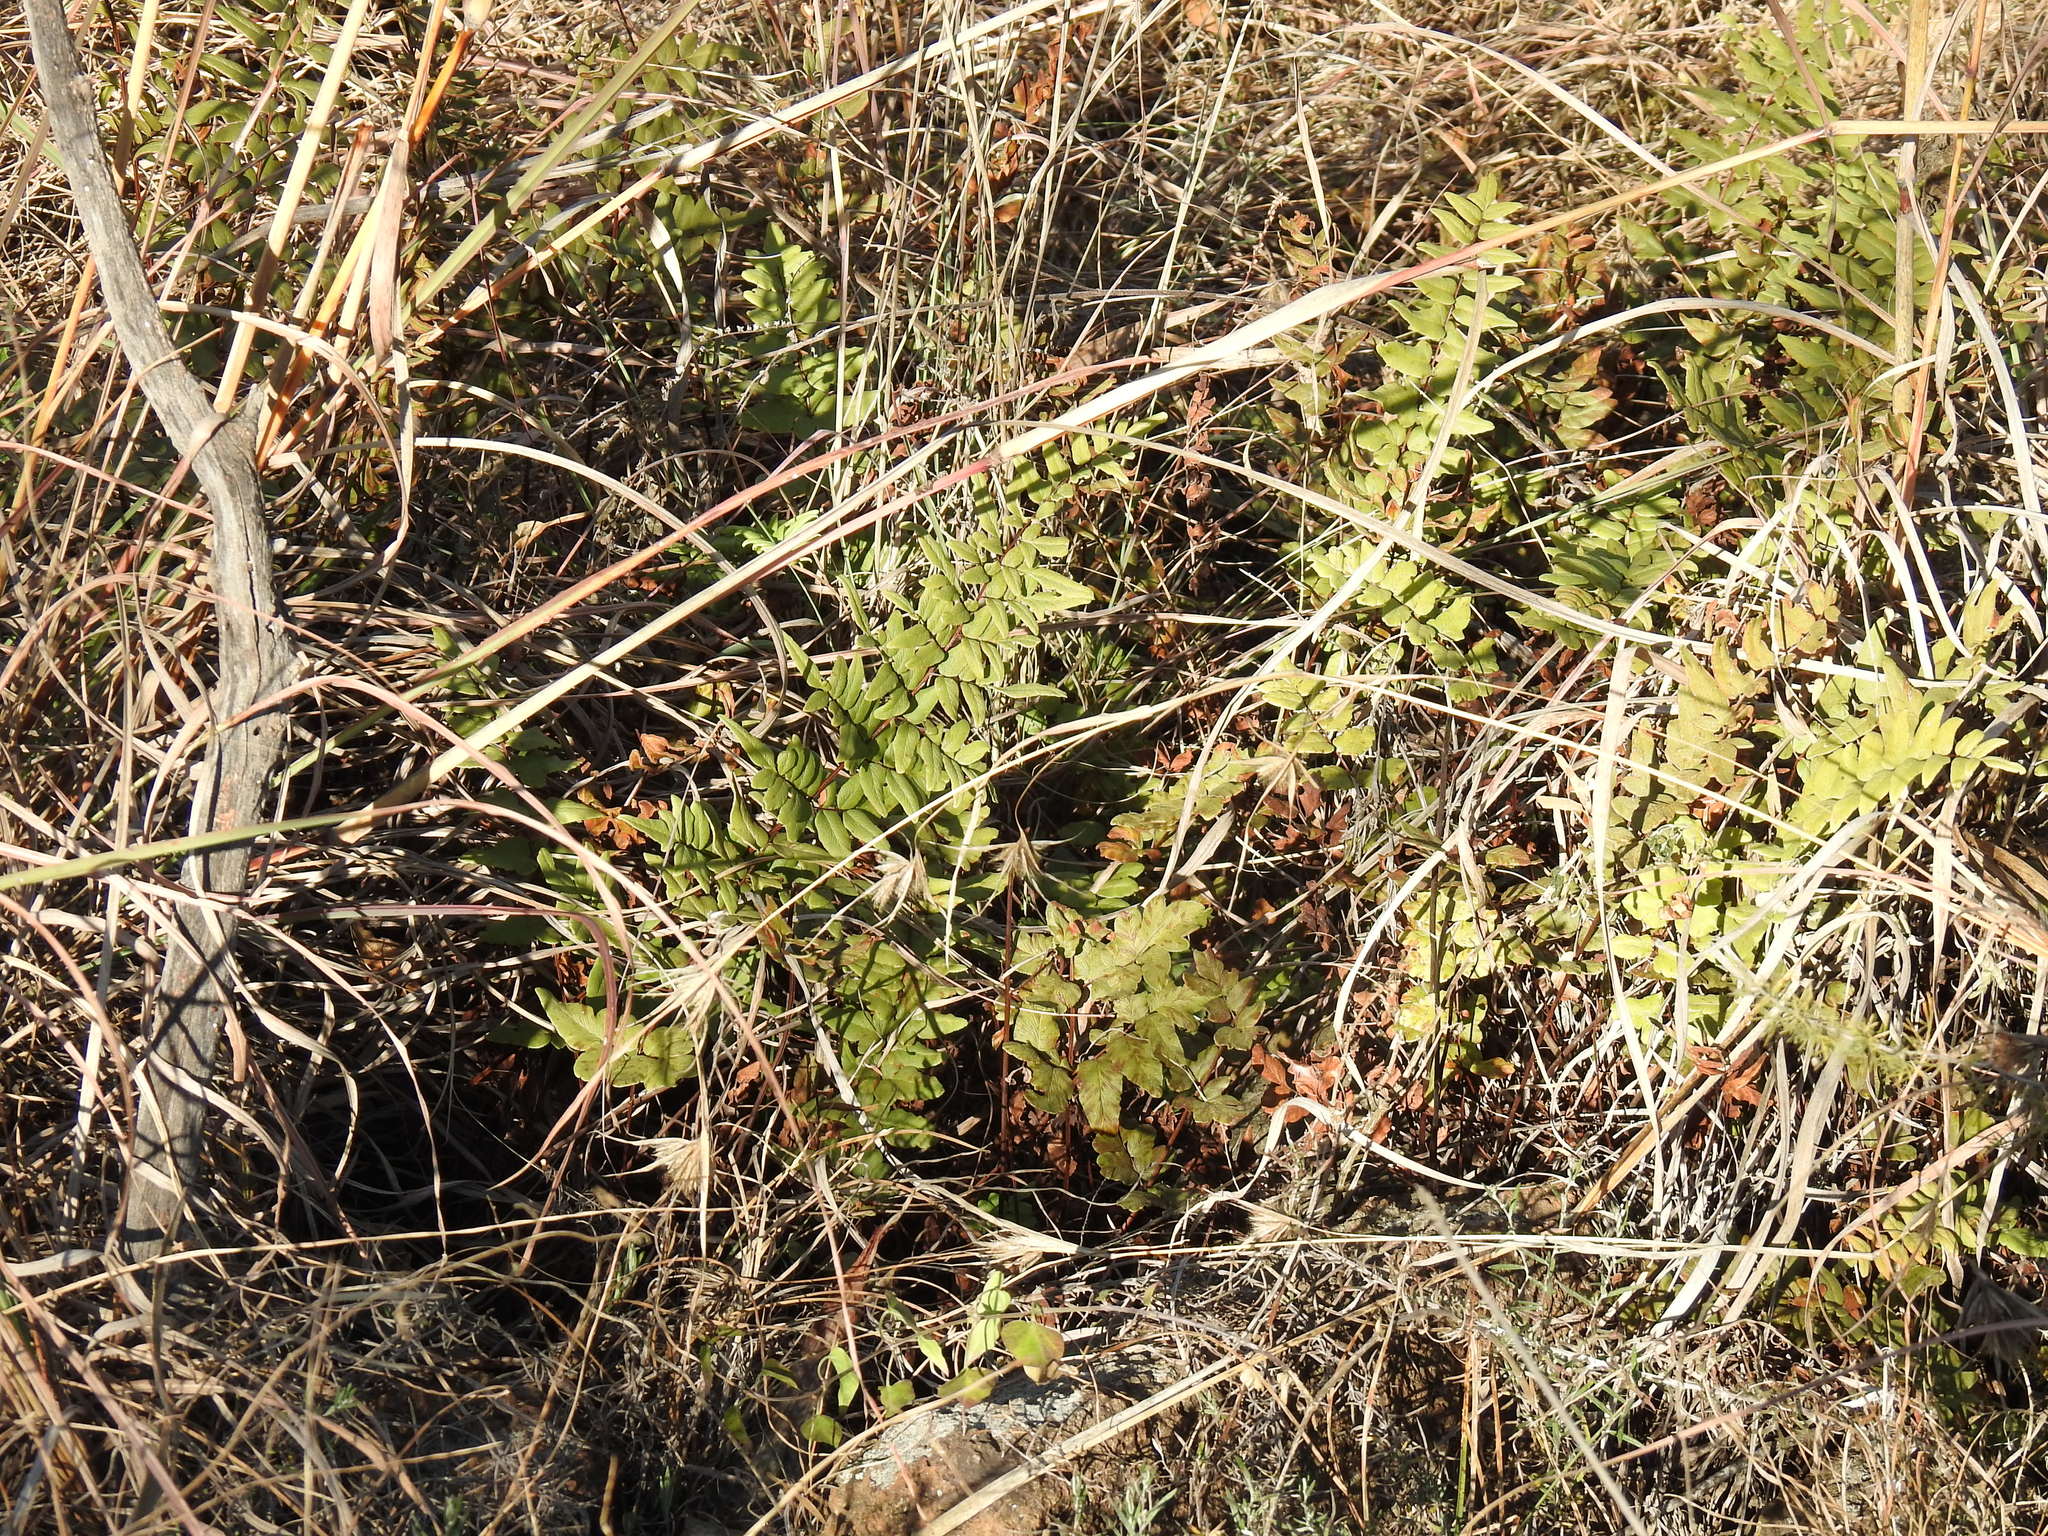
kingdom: Plantae
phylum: Tracheophyta
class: Polypodiopsida
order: Polypodiales
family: Pteridaceae
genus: Cheilanthes
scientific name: Cheilanthes viridis
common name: Green cliffbrake
